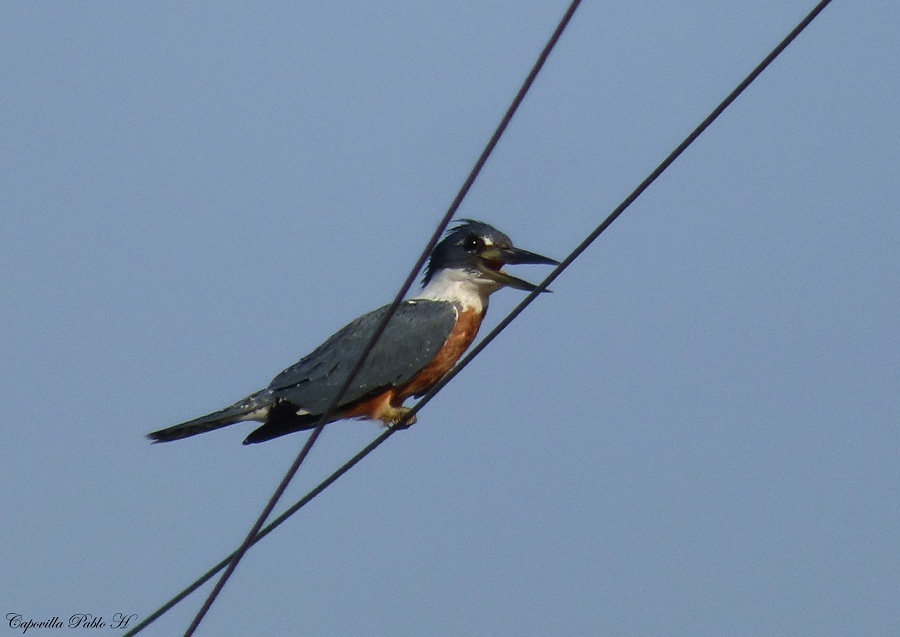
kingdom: Animalia
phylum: Chordata
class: Aves
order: Coraciiformes
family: Alcedinidae
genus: Megaceryle
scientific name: Megaceryle torquata
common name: Ringed kingfisher
